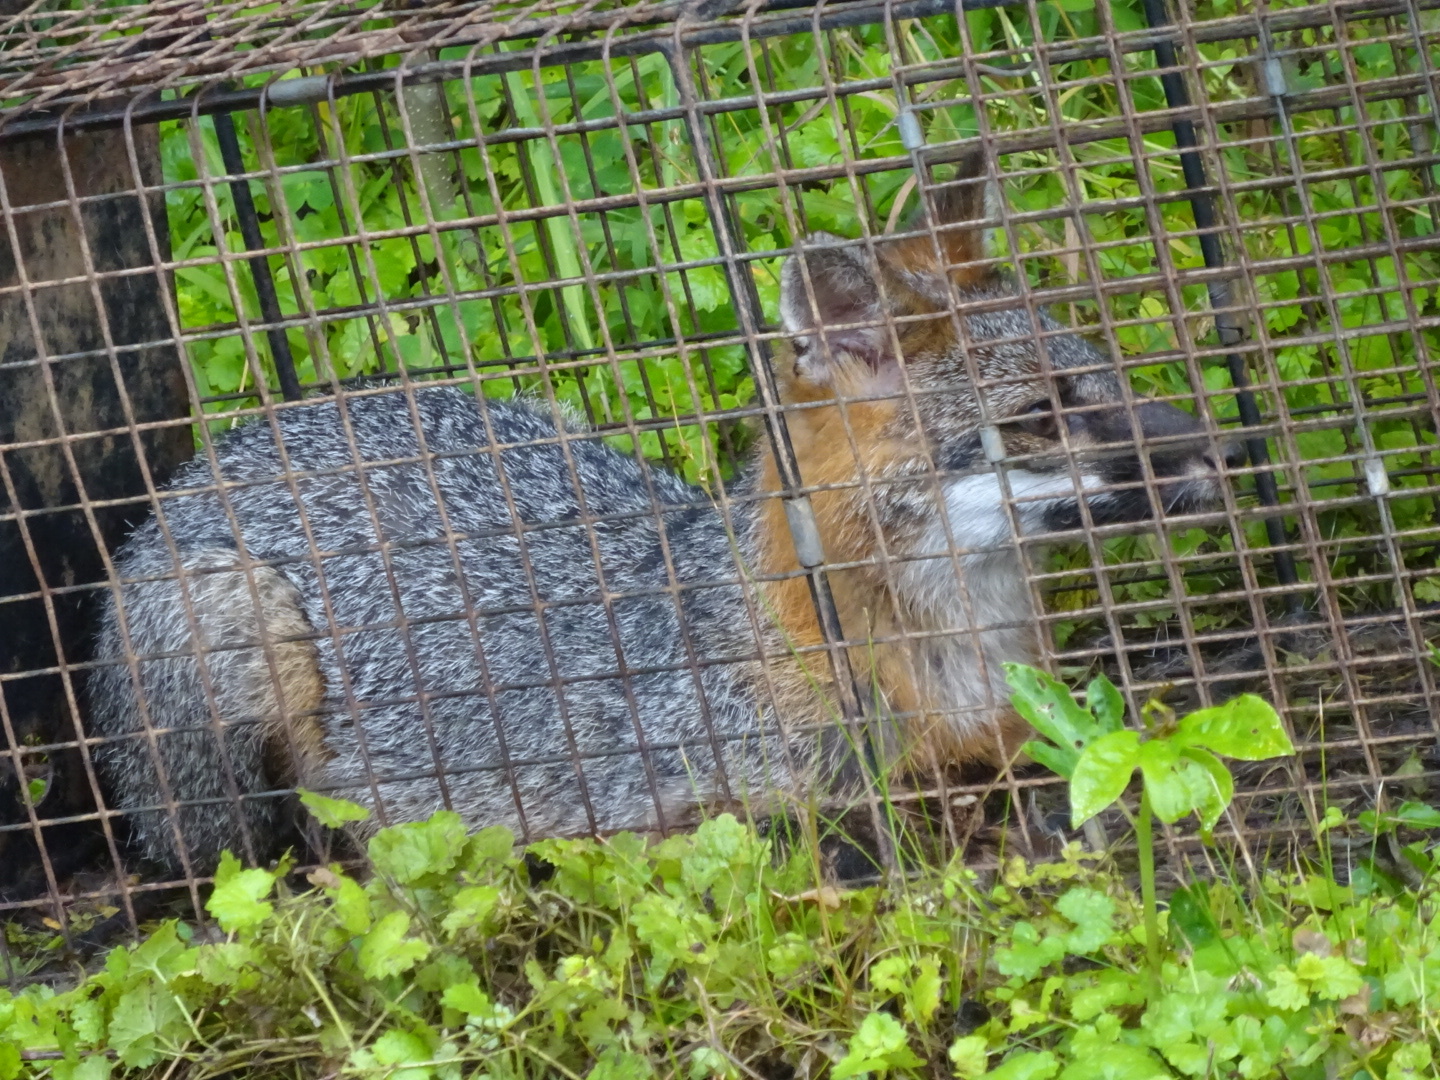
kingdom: Animalia
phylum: Chordata
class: Mammalia
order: Carnivora
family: Canidae
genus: Urocyon
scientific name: Urocyon cinereoargenteus
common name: Gray fox
